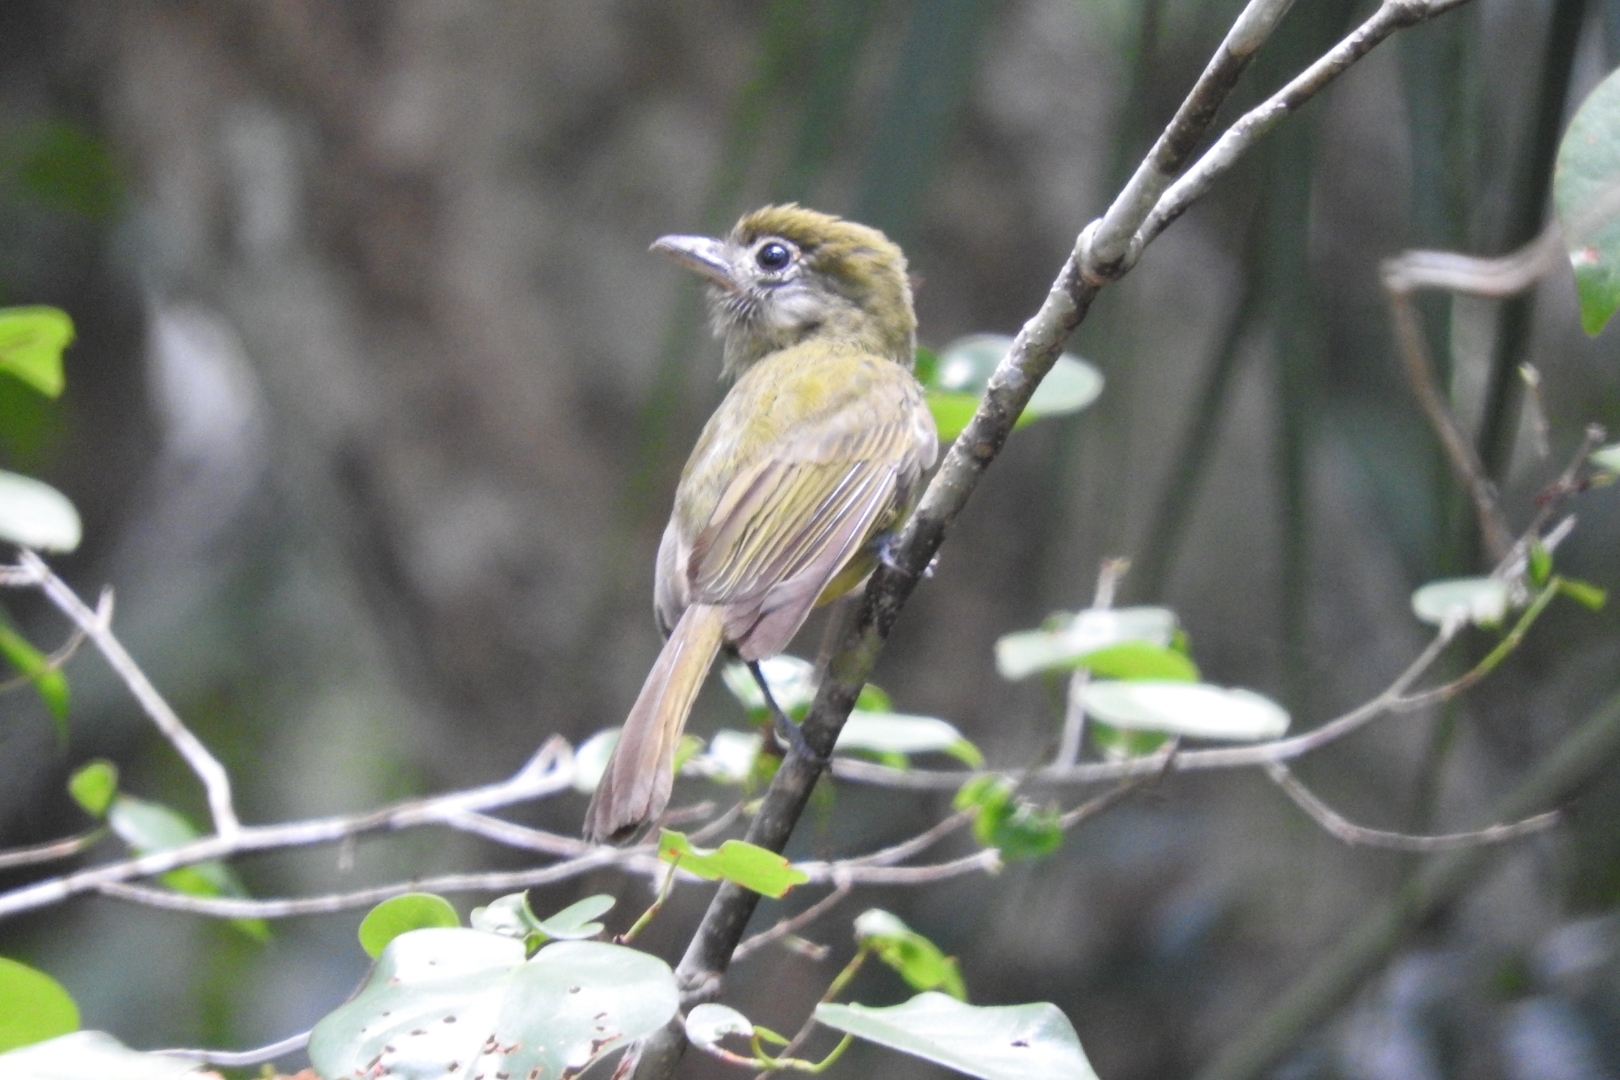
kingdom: Animalia
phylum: Chordata
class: Aves
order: Passeriformes
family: Tyrannidae
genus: Rhynchocyclus
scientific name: Rhynchocyclus brevirostris
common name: Eye-ringed flatbill
